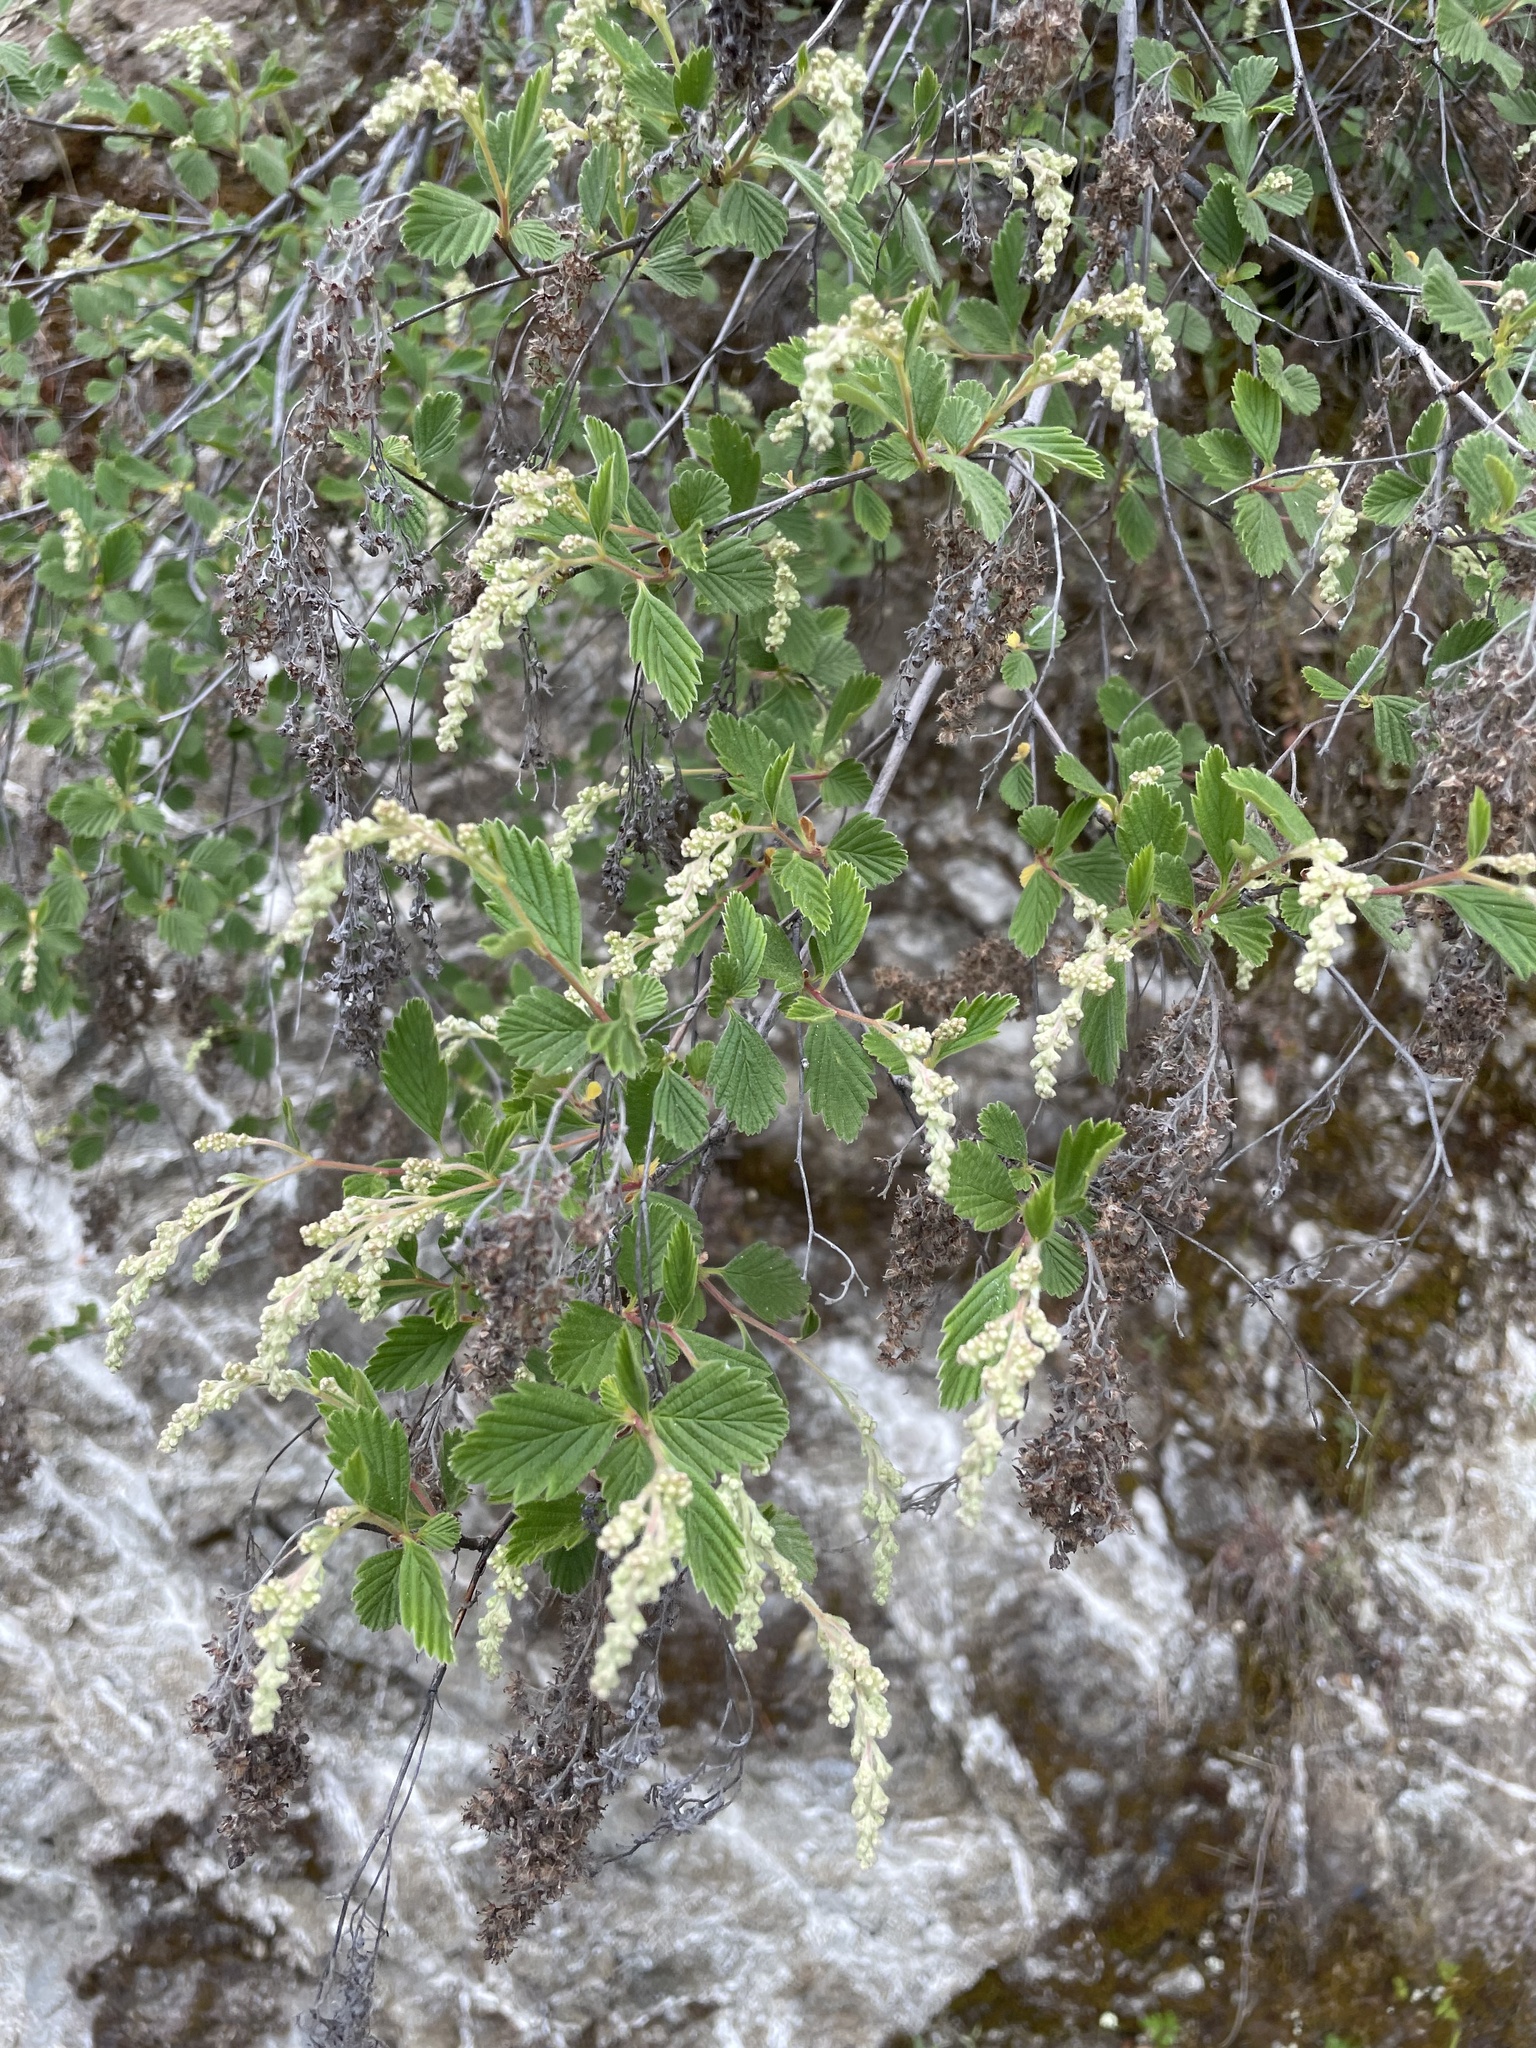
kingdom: Plantae
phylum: Tracheophyta
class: Magnoliopsida
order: Rosales
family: Rosaceae
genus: Holodiscus
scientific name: Holodiscus discolor
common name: Oceanspray
